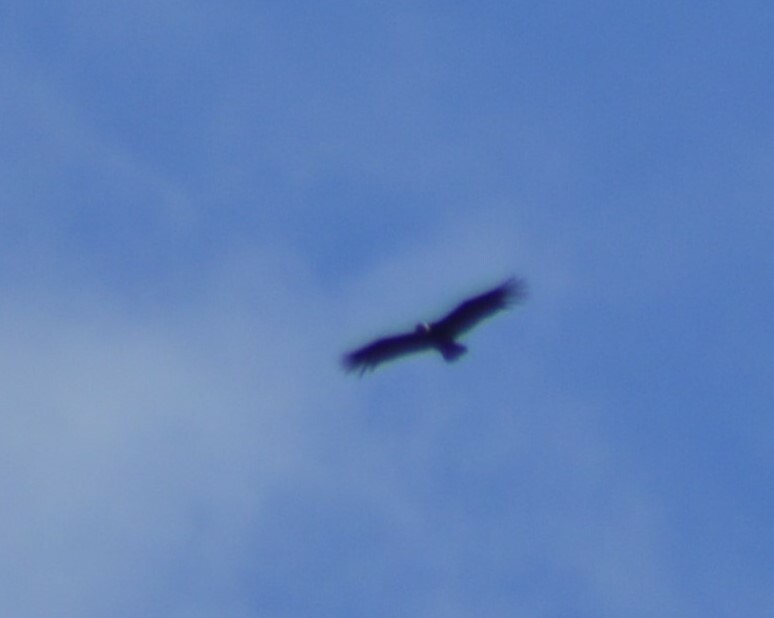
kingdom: Animalia
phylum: Chordata
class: Aves
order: Accipitriformes
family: Cathartidae
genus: Vultur
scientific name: Vultur gryphus
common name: Andean condor
